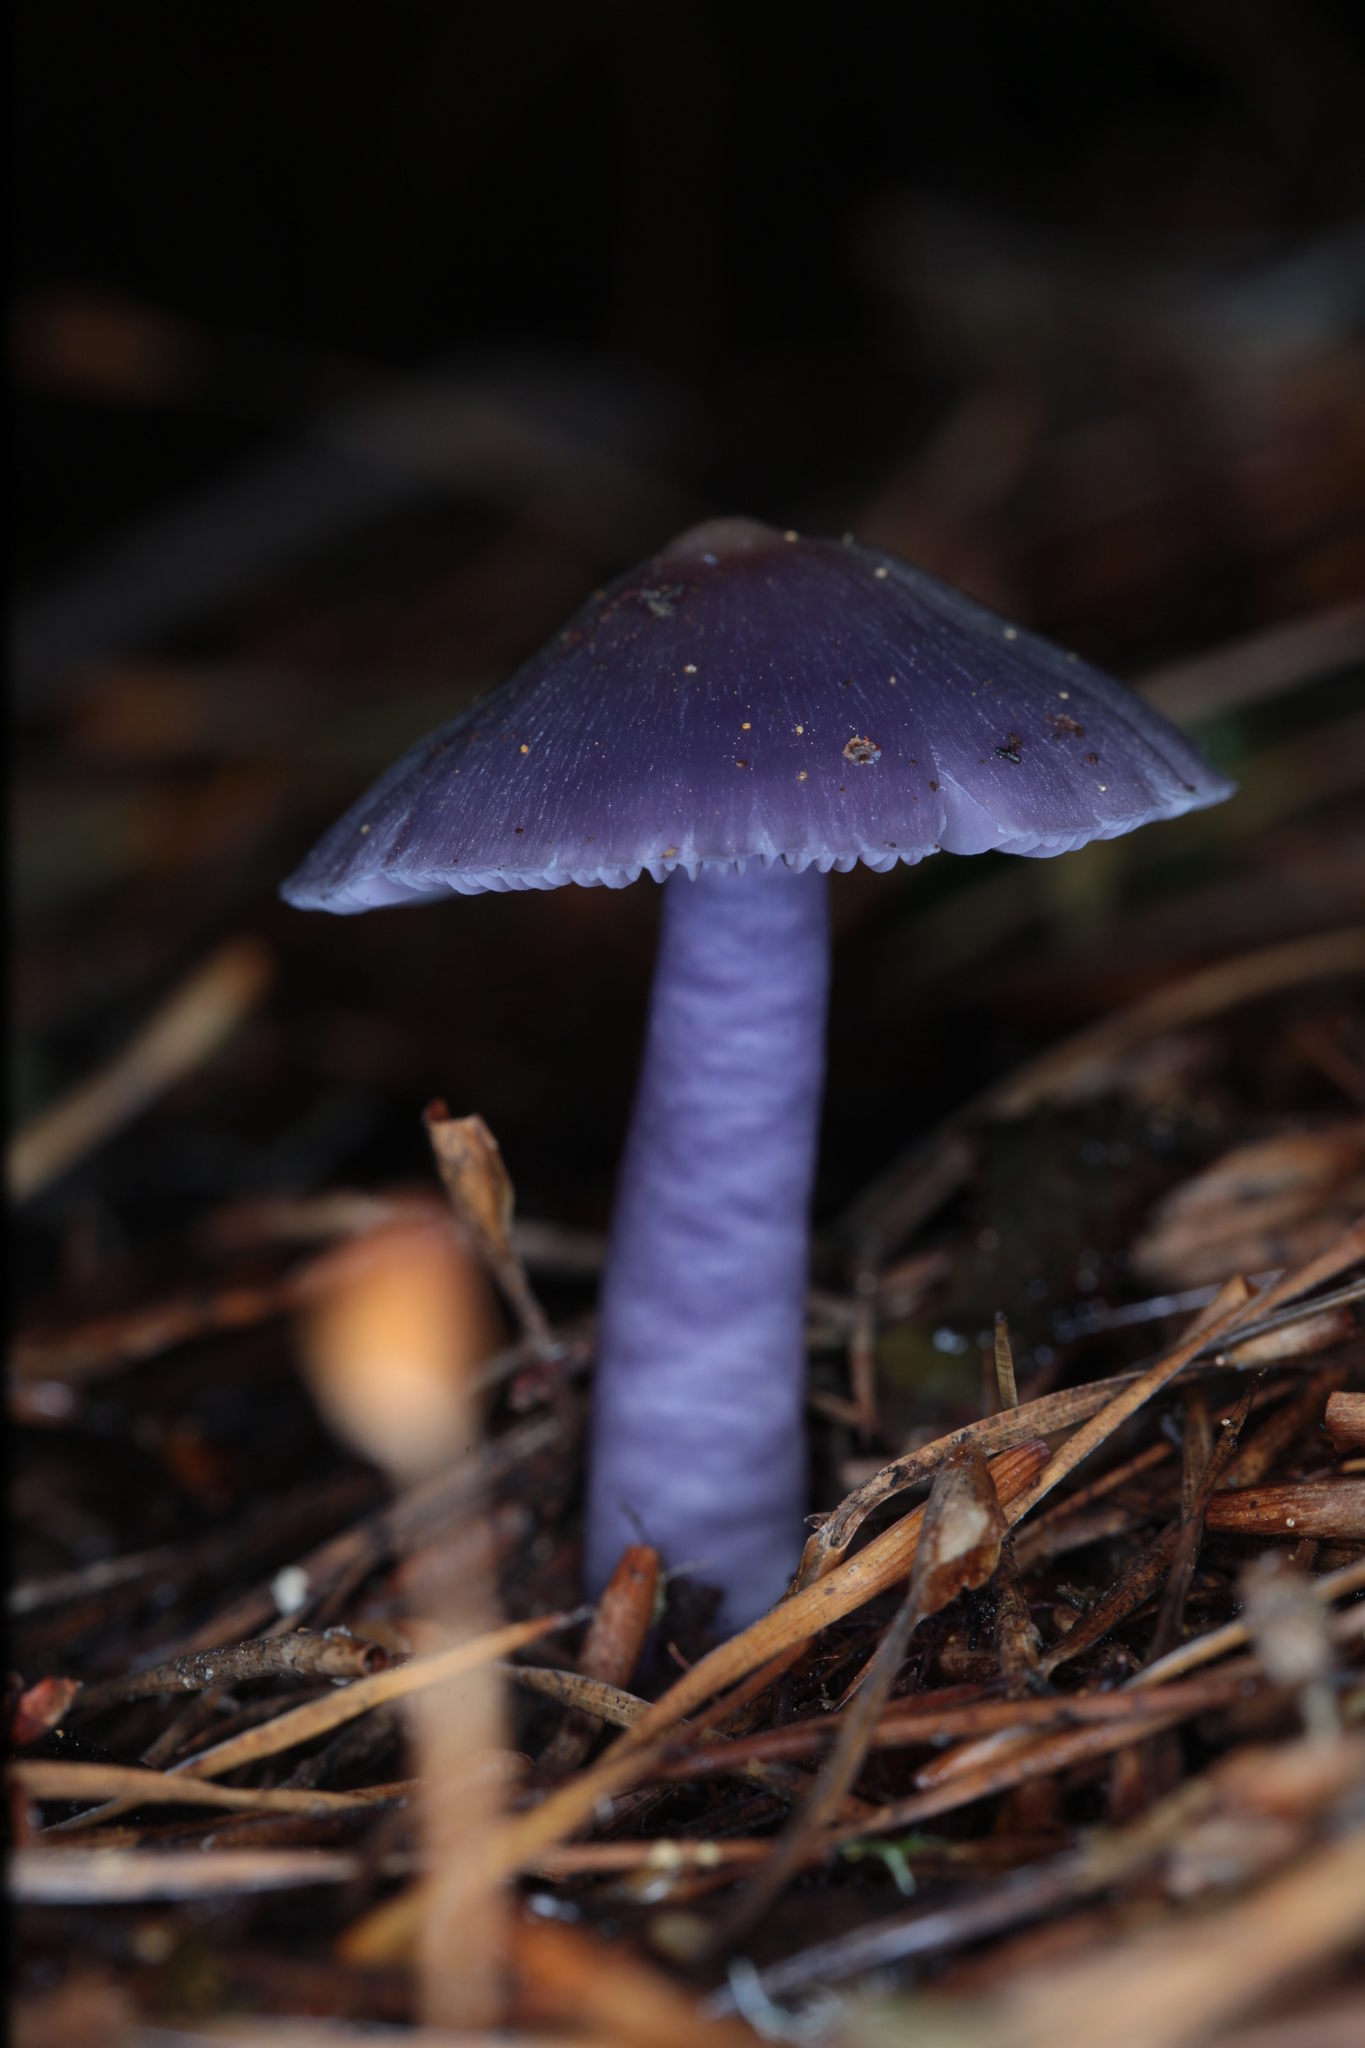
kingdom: Fungi
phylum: Basidiomycota
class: Agaricomycetes
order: Agaricales
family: Hygrophoraceae
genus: Porpolomopsis
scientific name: Porpolomopsis lewelliniae
